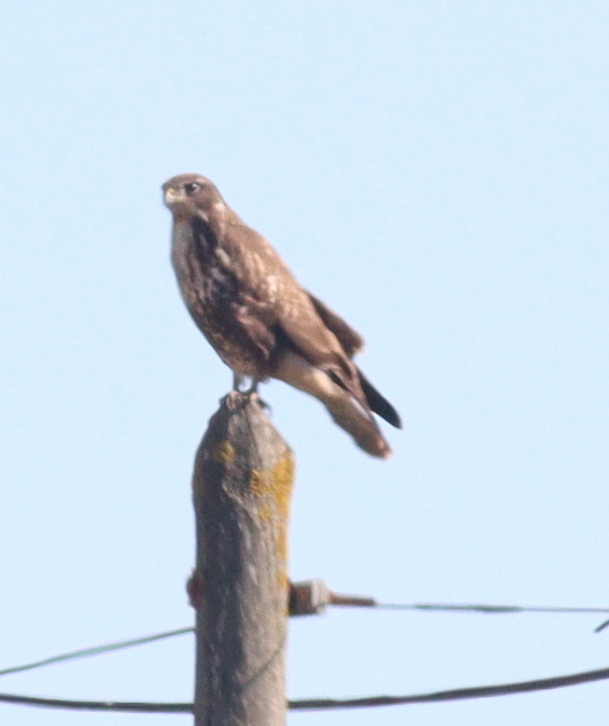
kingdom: Animalia
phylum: Chordata
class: Aves
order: Accipitriformes
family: Accipitridae
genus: Buteo
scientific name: Buteo buteo
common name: Common buzzard
